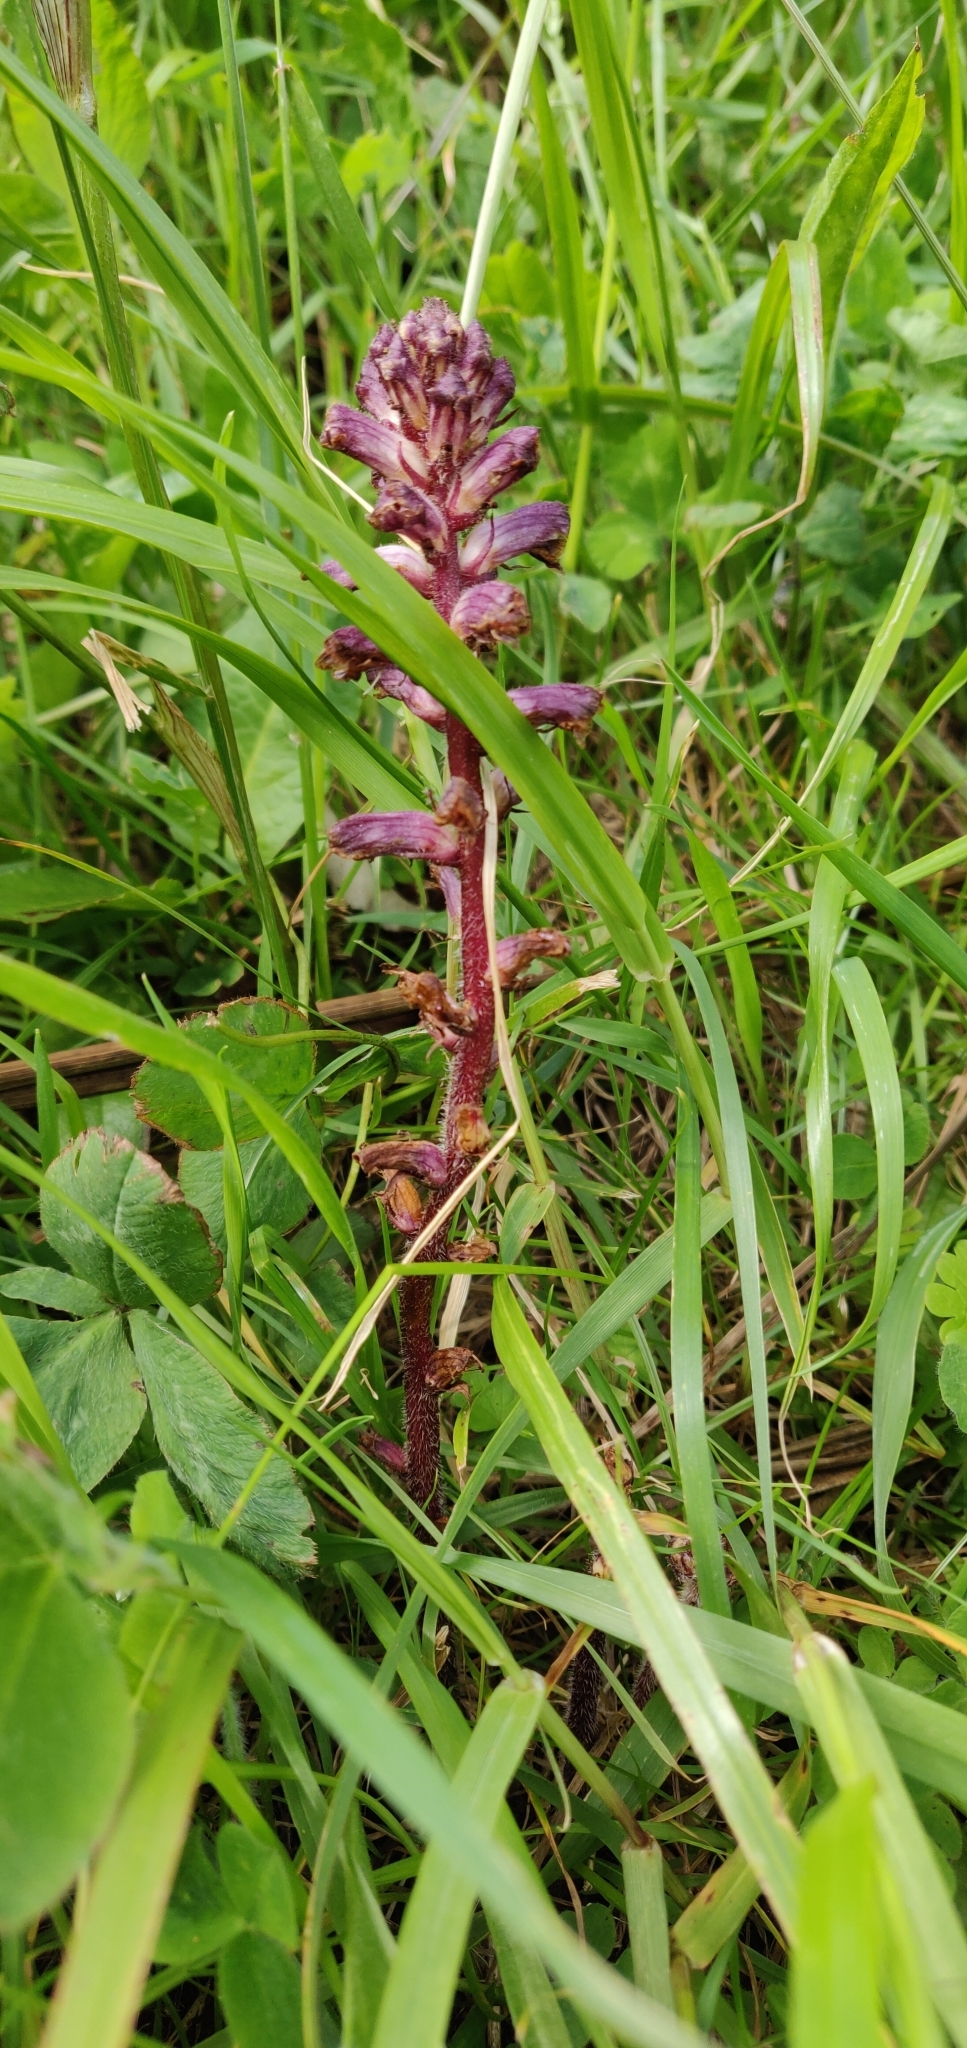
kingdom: Plantae
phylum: Tracheophyta
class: Magnoliopsida
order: Lamiales
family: Orobanchaceae
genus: Orobanche
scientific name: Orobanche minor
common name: Common broomrape
